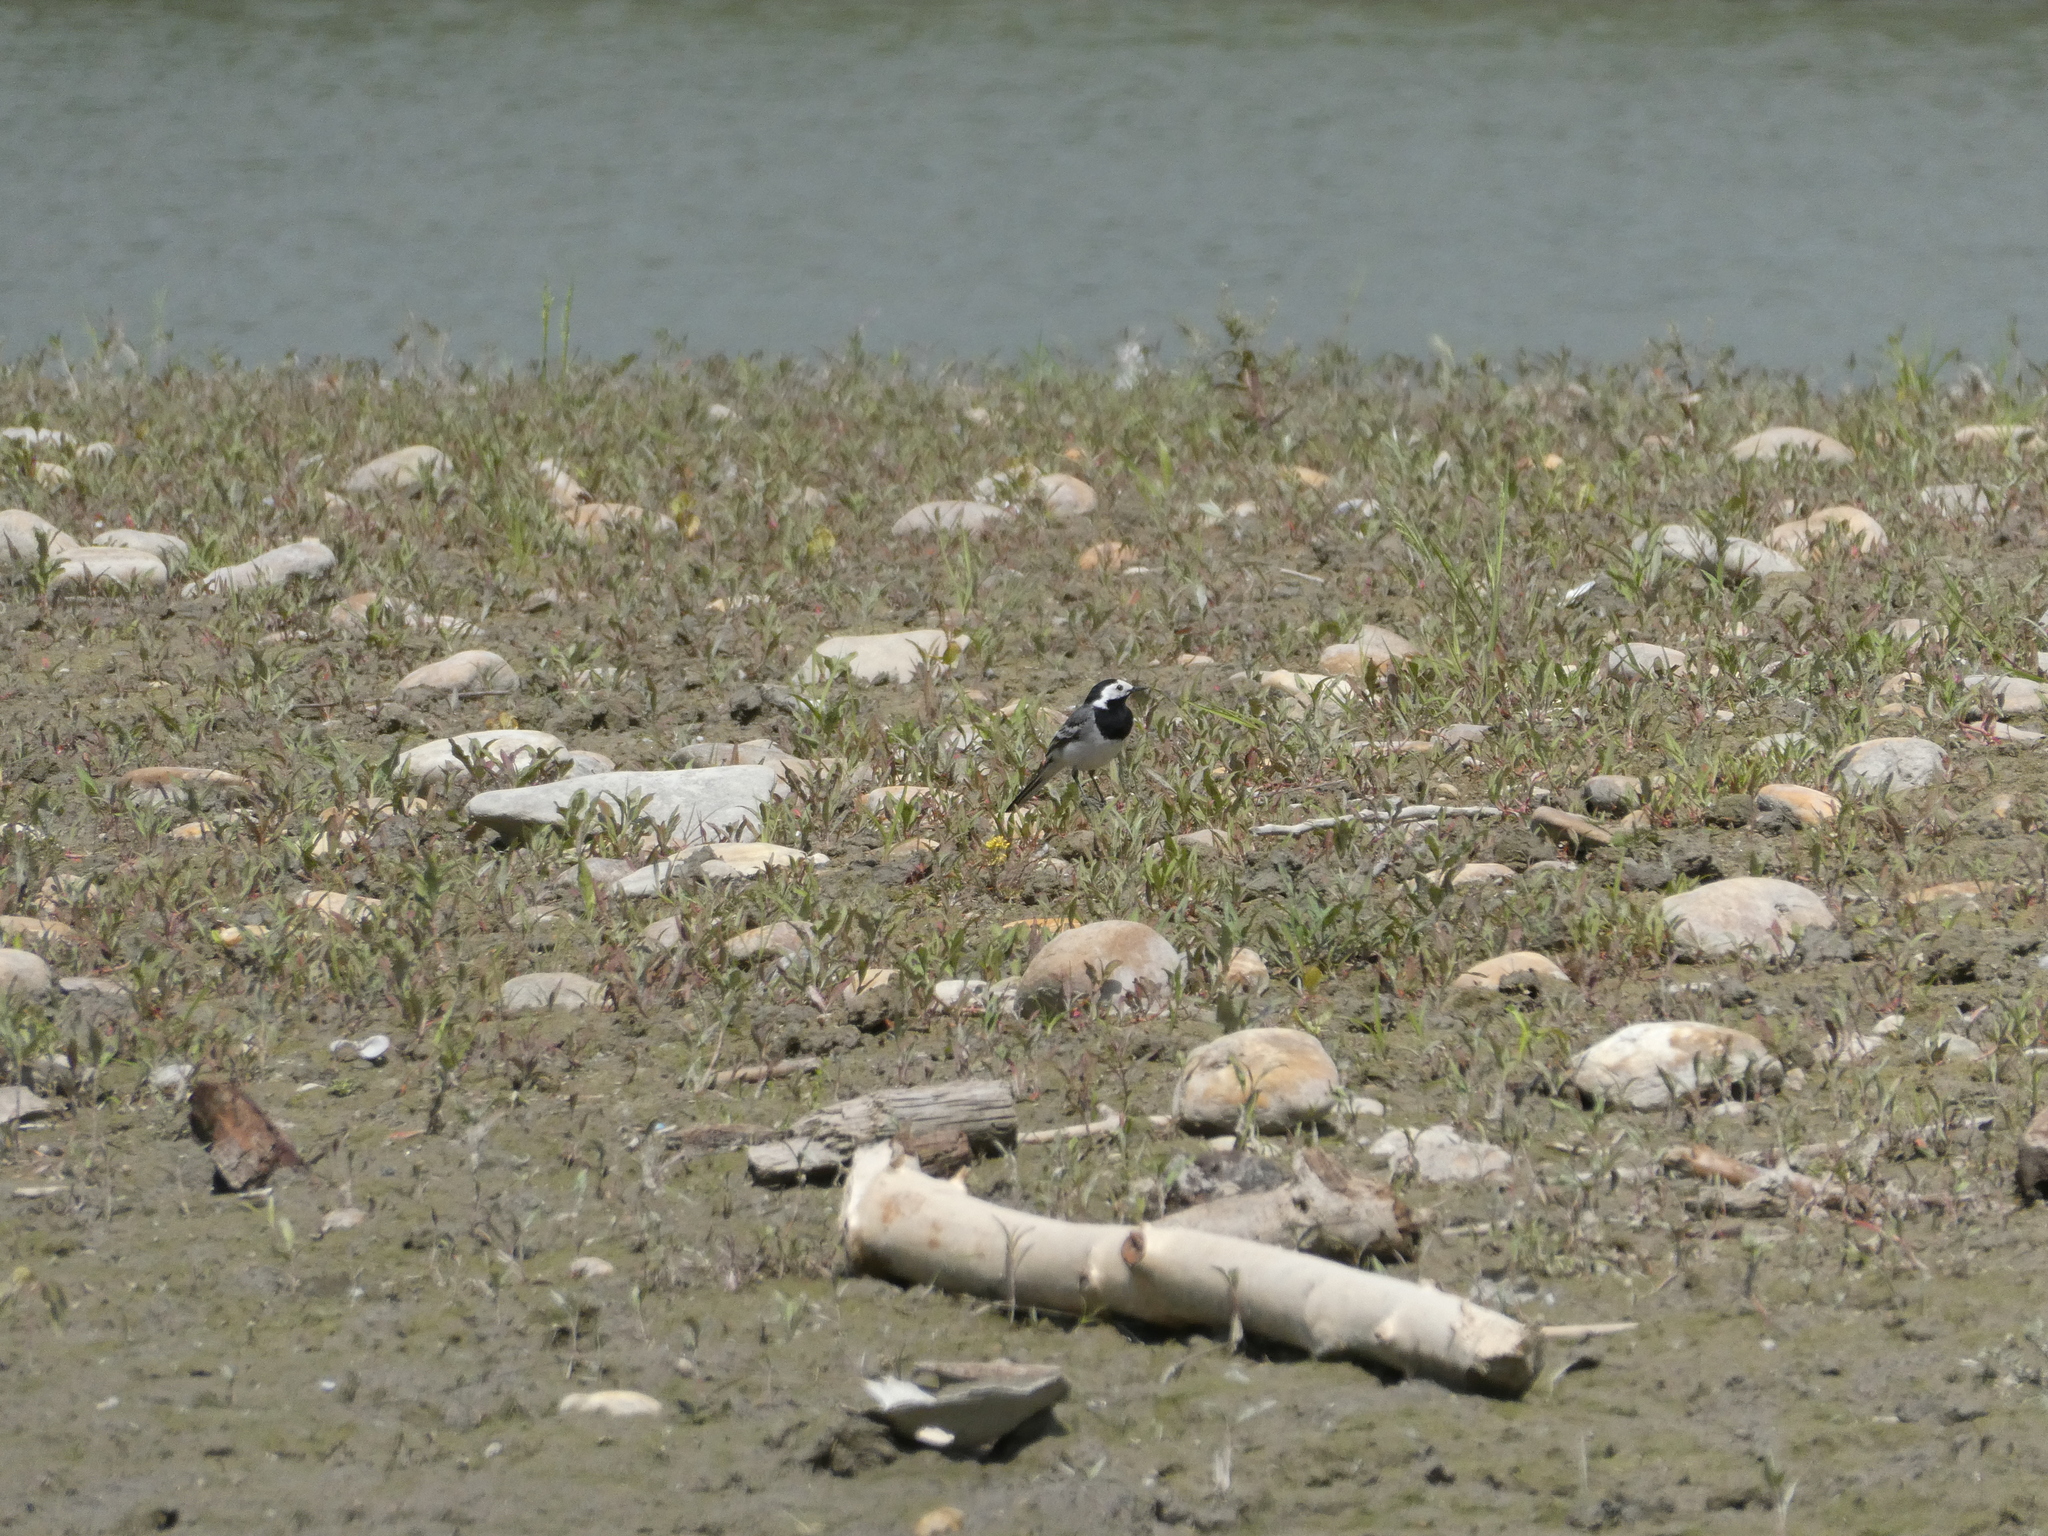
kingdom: Animalia
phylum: Chordata
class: Aves
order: Passeriformes
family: Motacillidae
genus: Motacilla
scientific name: Motacilla alba
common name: White wagtail
